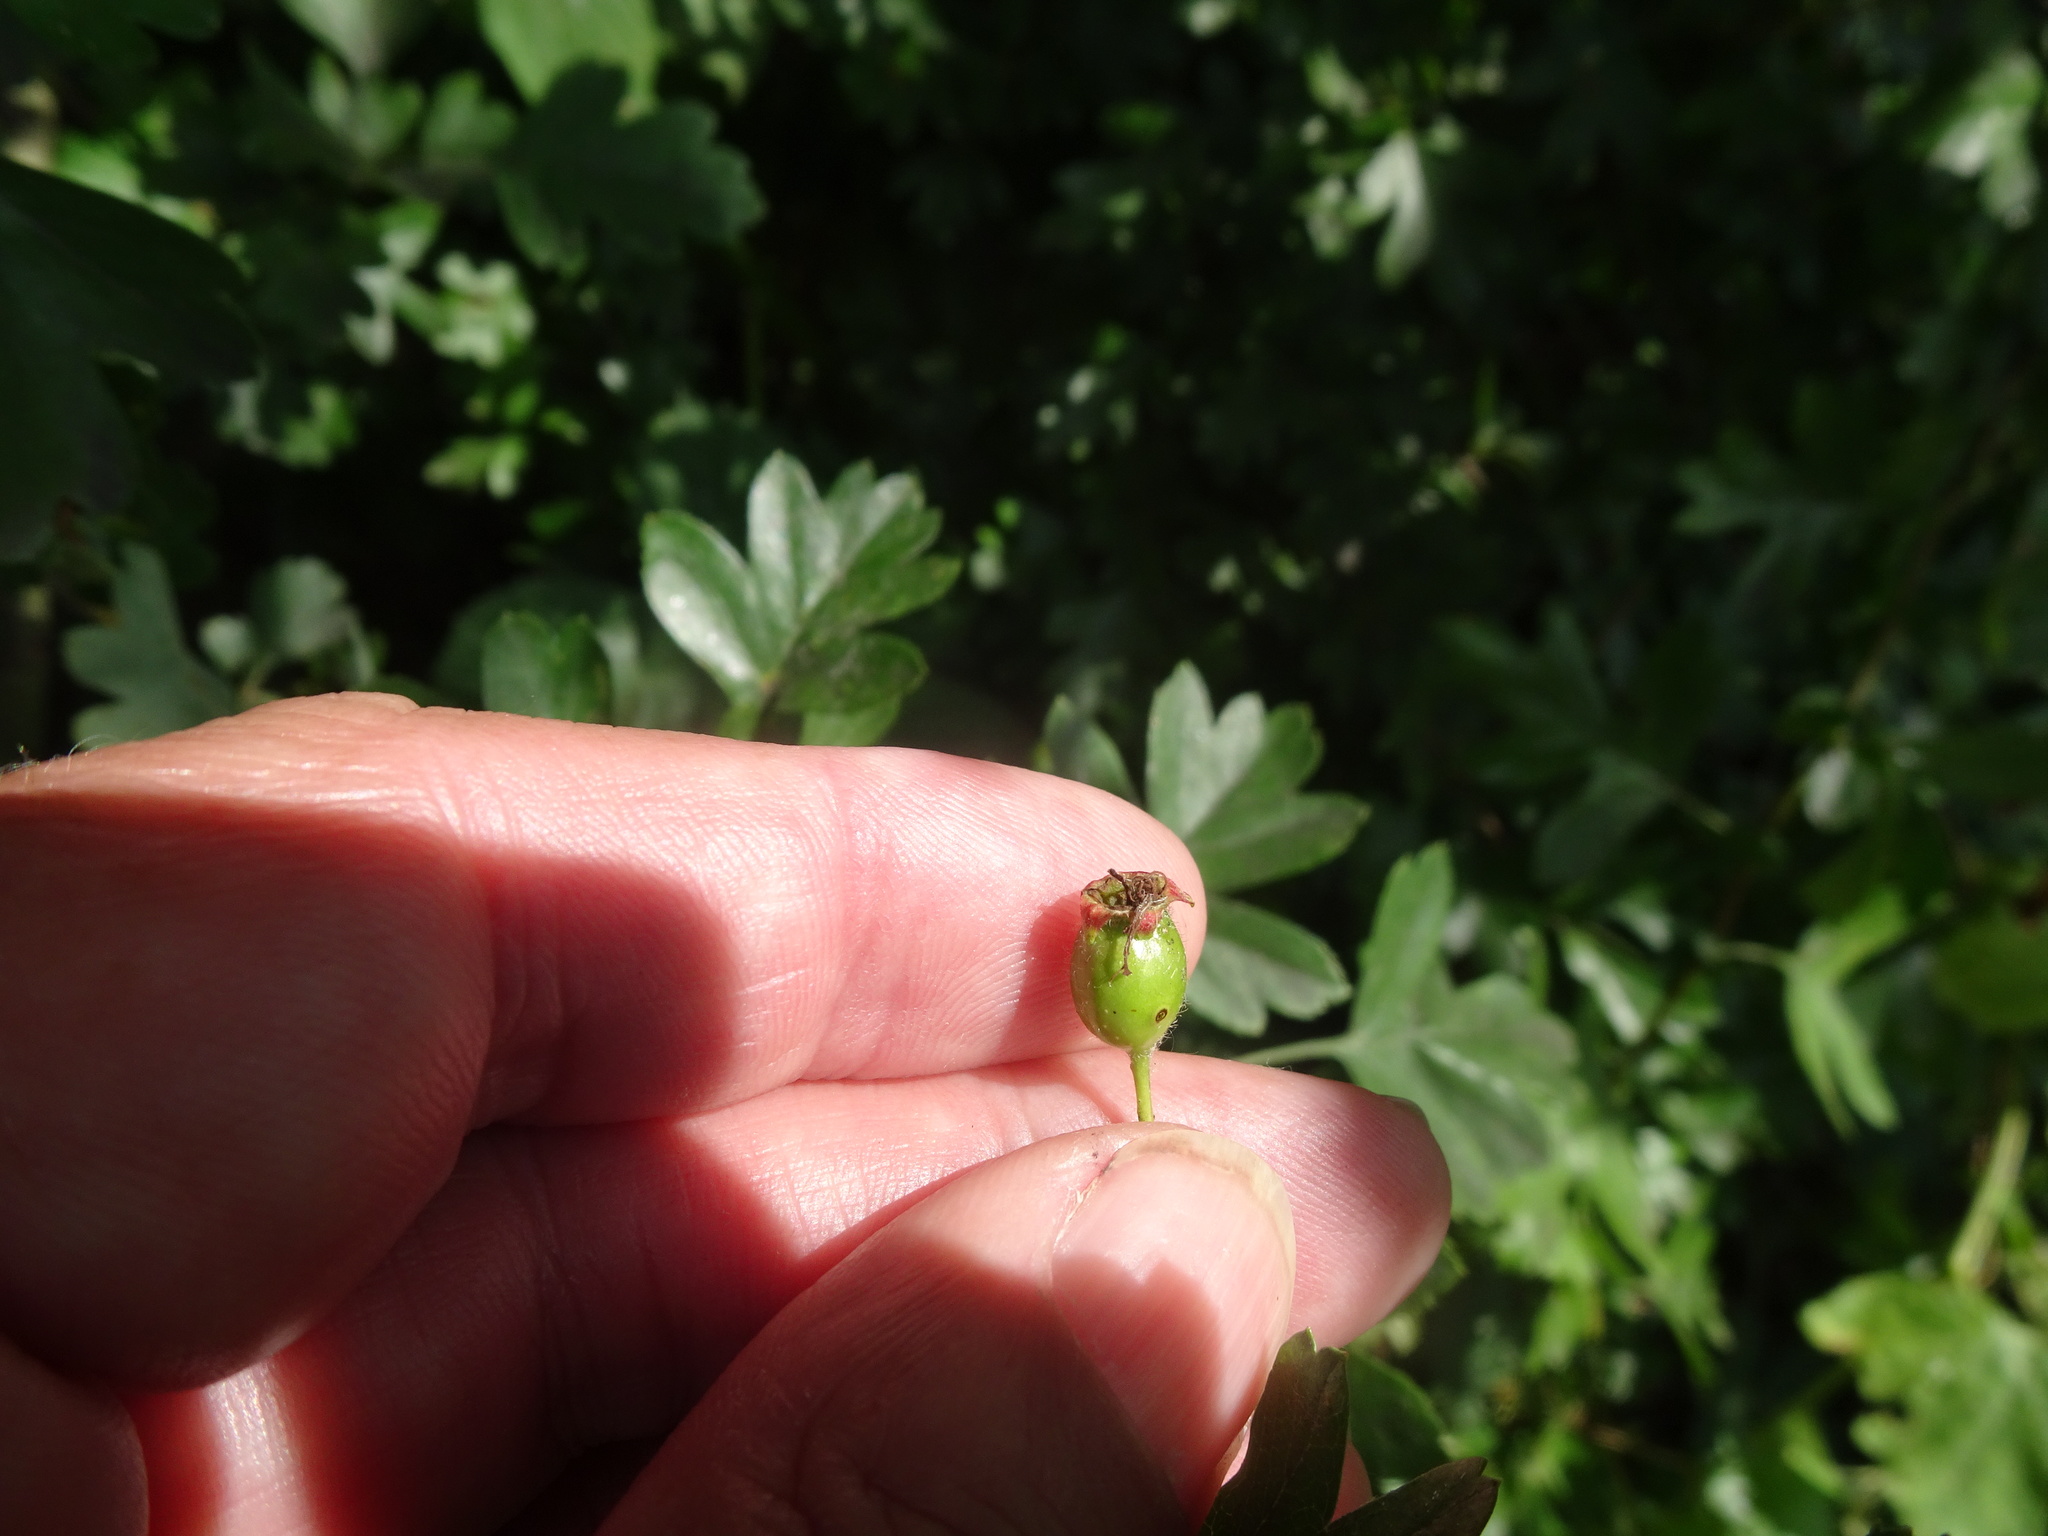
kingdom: Plantae
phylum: Tracheophyta
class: Magnoliopsida
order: Rosales
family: Rosaceae
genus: Crataegus
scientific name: Crataegus monogyna
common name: Hawthorn
